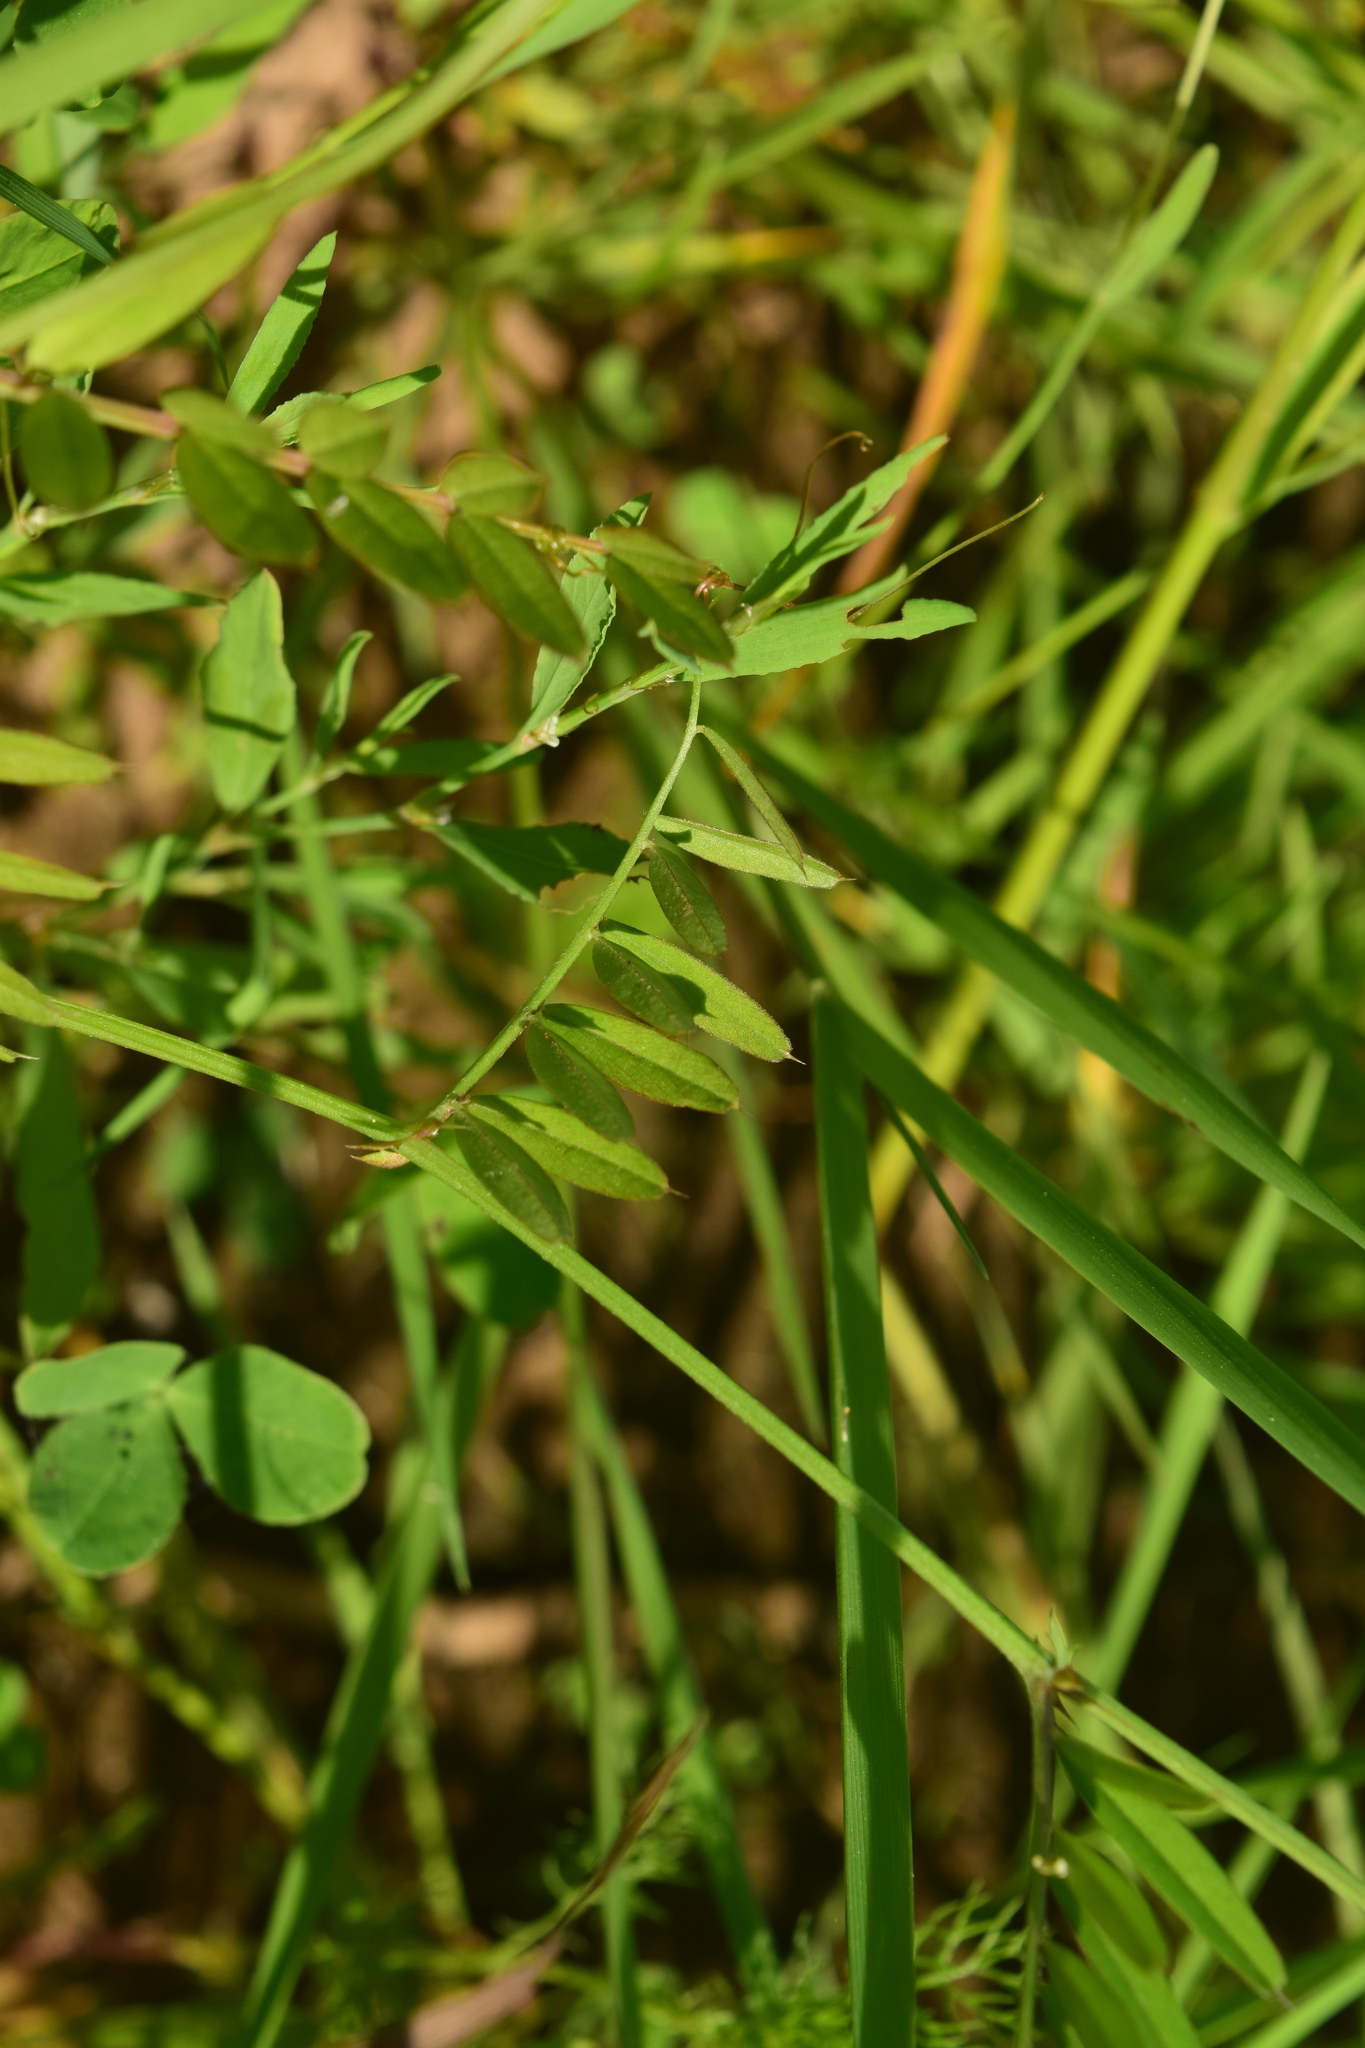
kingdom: Plantae
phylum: Tracheophyta
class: Magnoliopsida
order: Fabales
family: Fabaceae
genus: Vicia
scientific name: Vicia sativa
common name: Garden vetch
